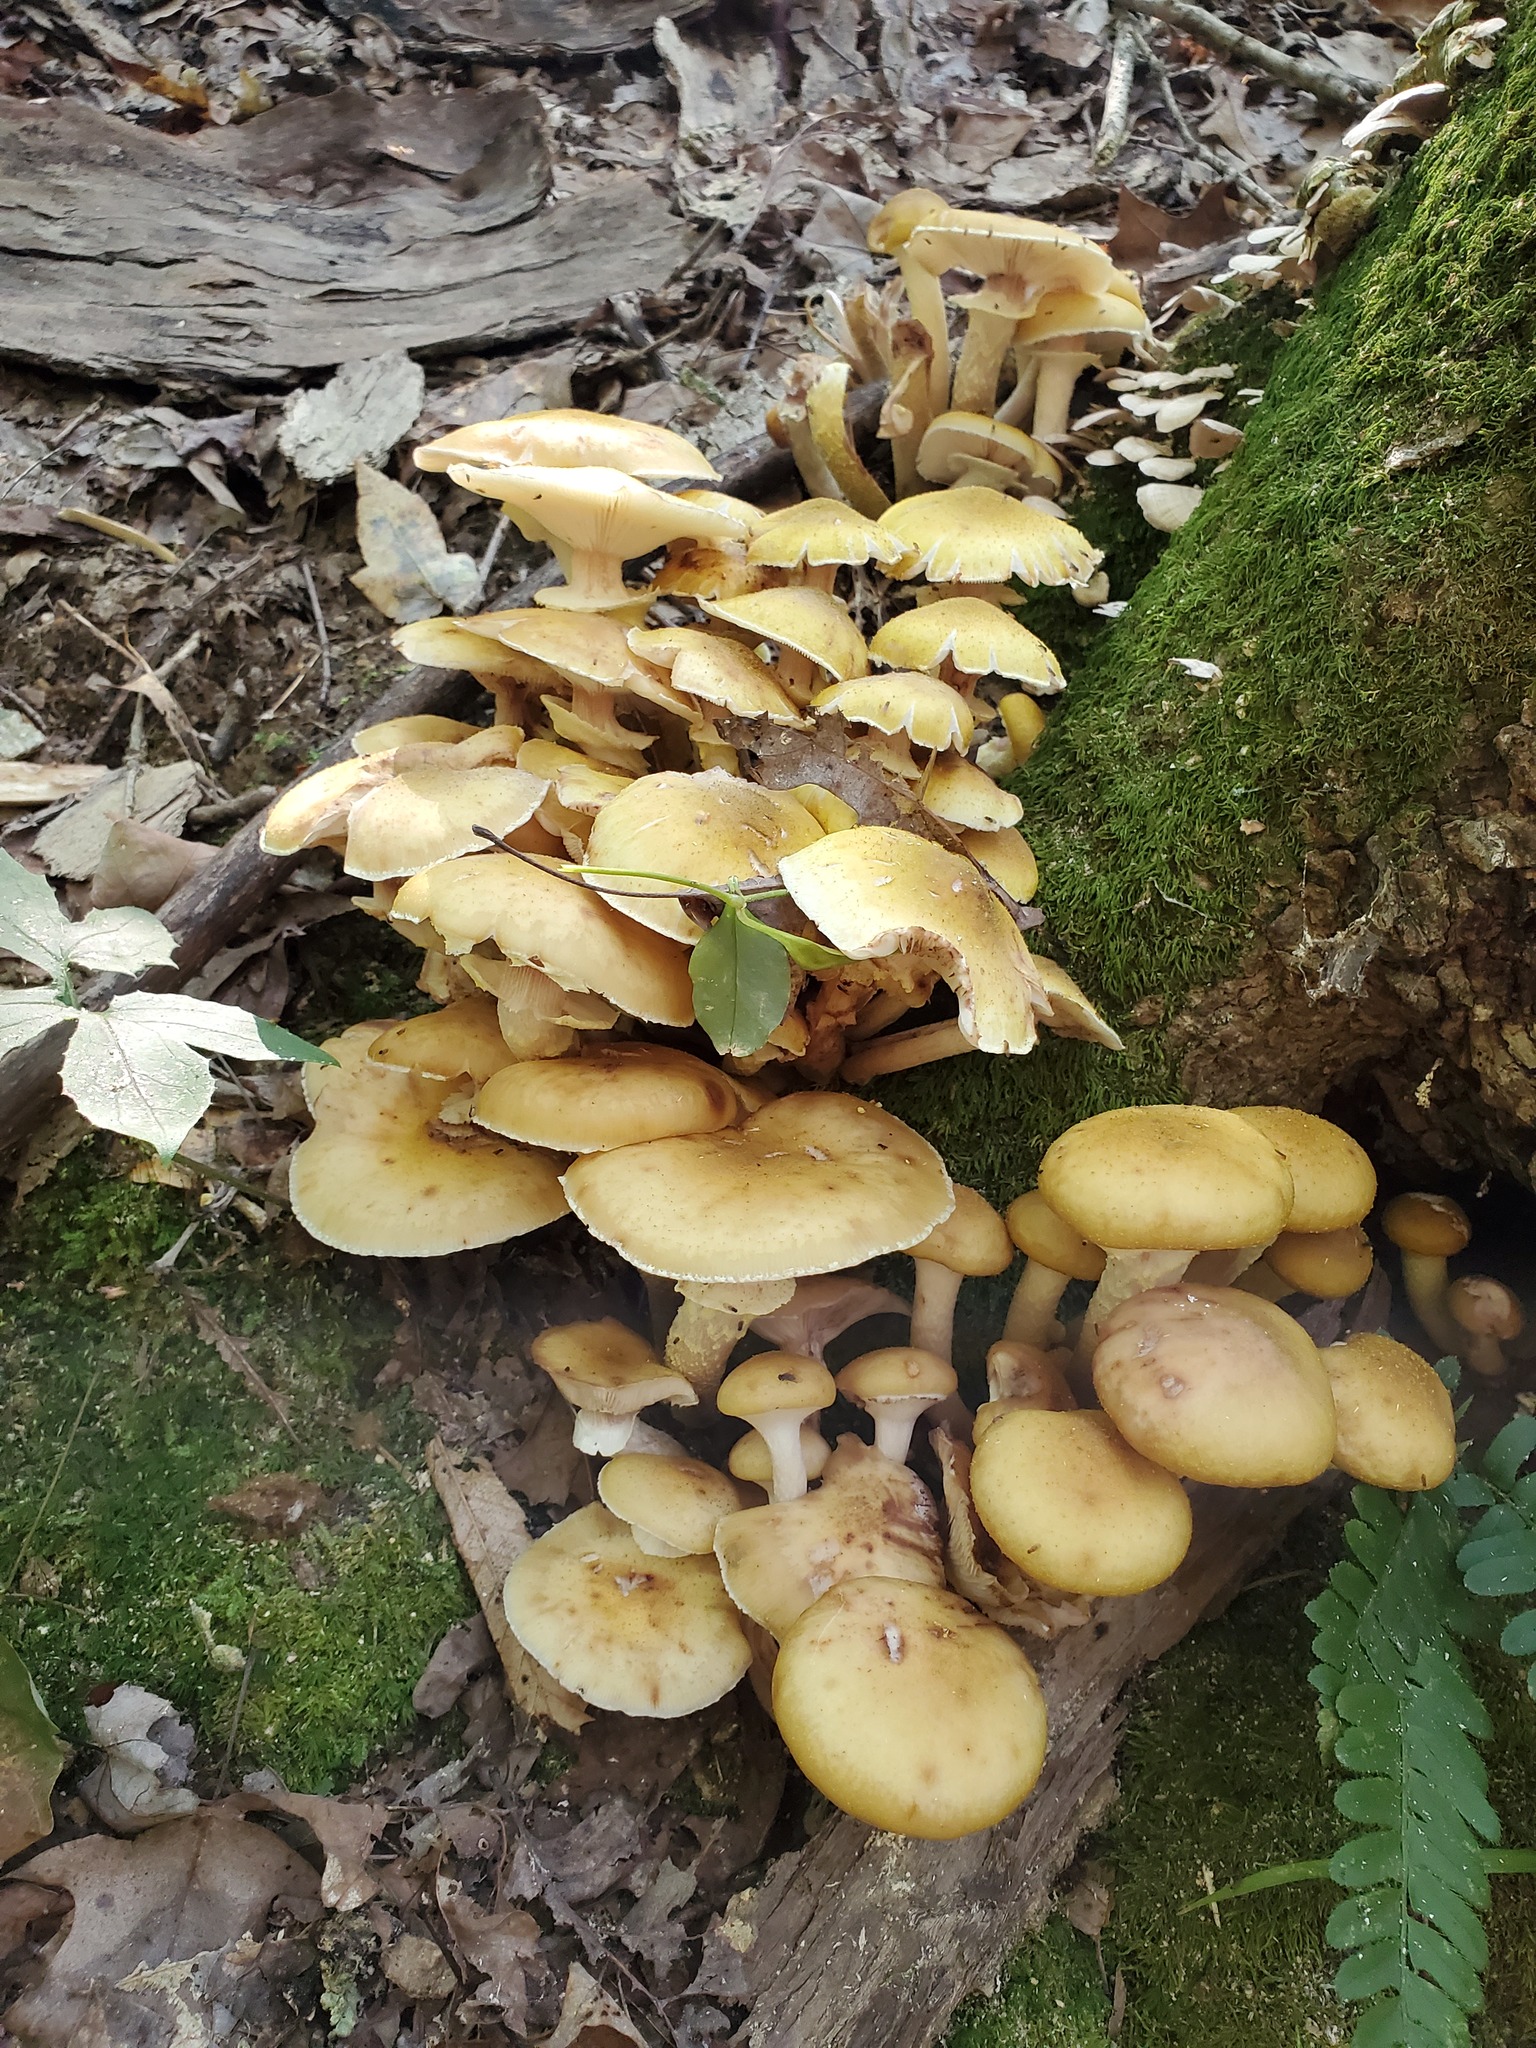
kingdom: Fungi
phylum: Basidiomycota
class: Agaricomycetes
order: Agaricales
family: Physalacriaceae
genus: Armillaria
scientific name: Armillaria mellea
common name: Honey fungus
